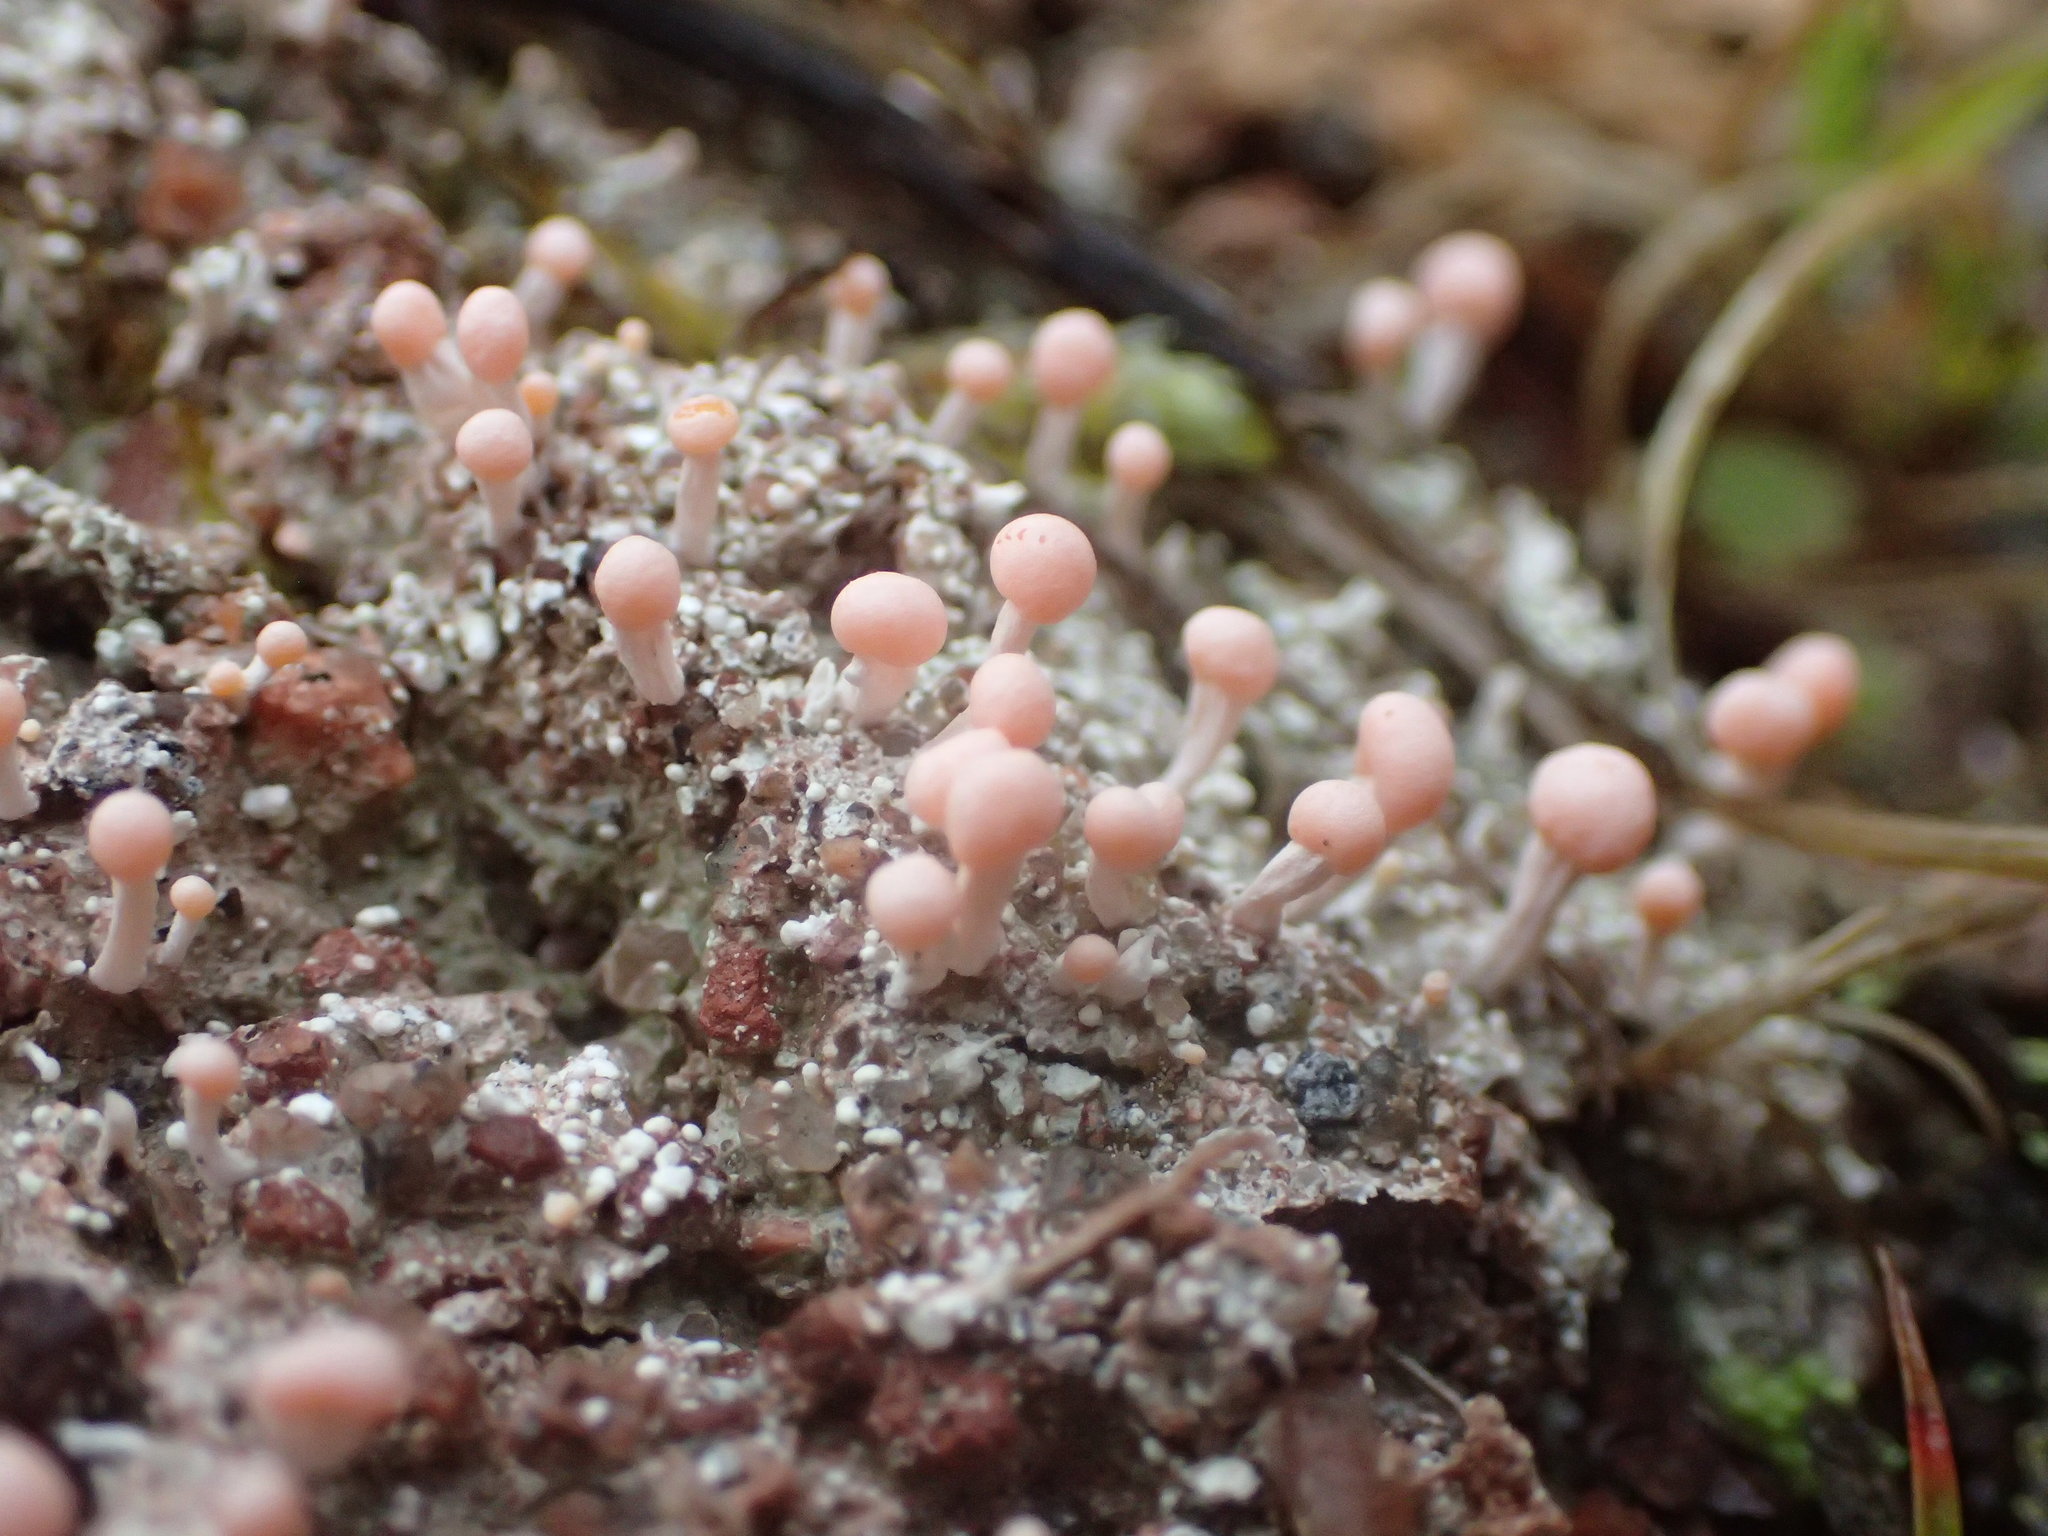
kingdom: Fungi
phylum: Ascomycota
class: Lecanoromycetes
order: Pertusariales
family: Icmadophilaceae
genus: Dibaeis
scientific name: Dibaeis baeomyces
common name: Pink earth lichen
